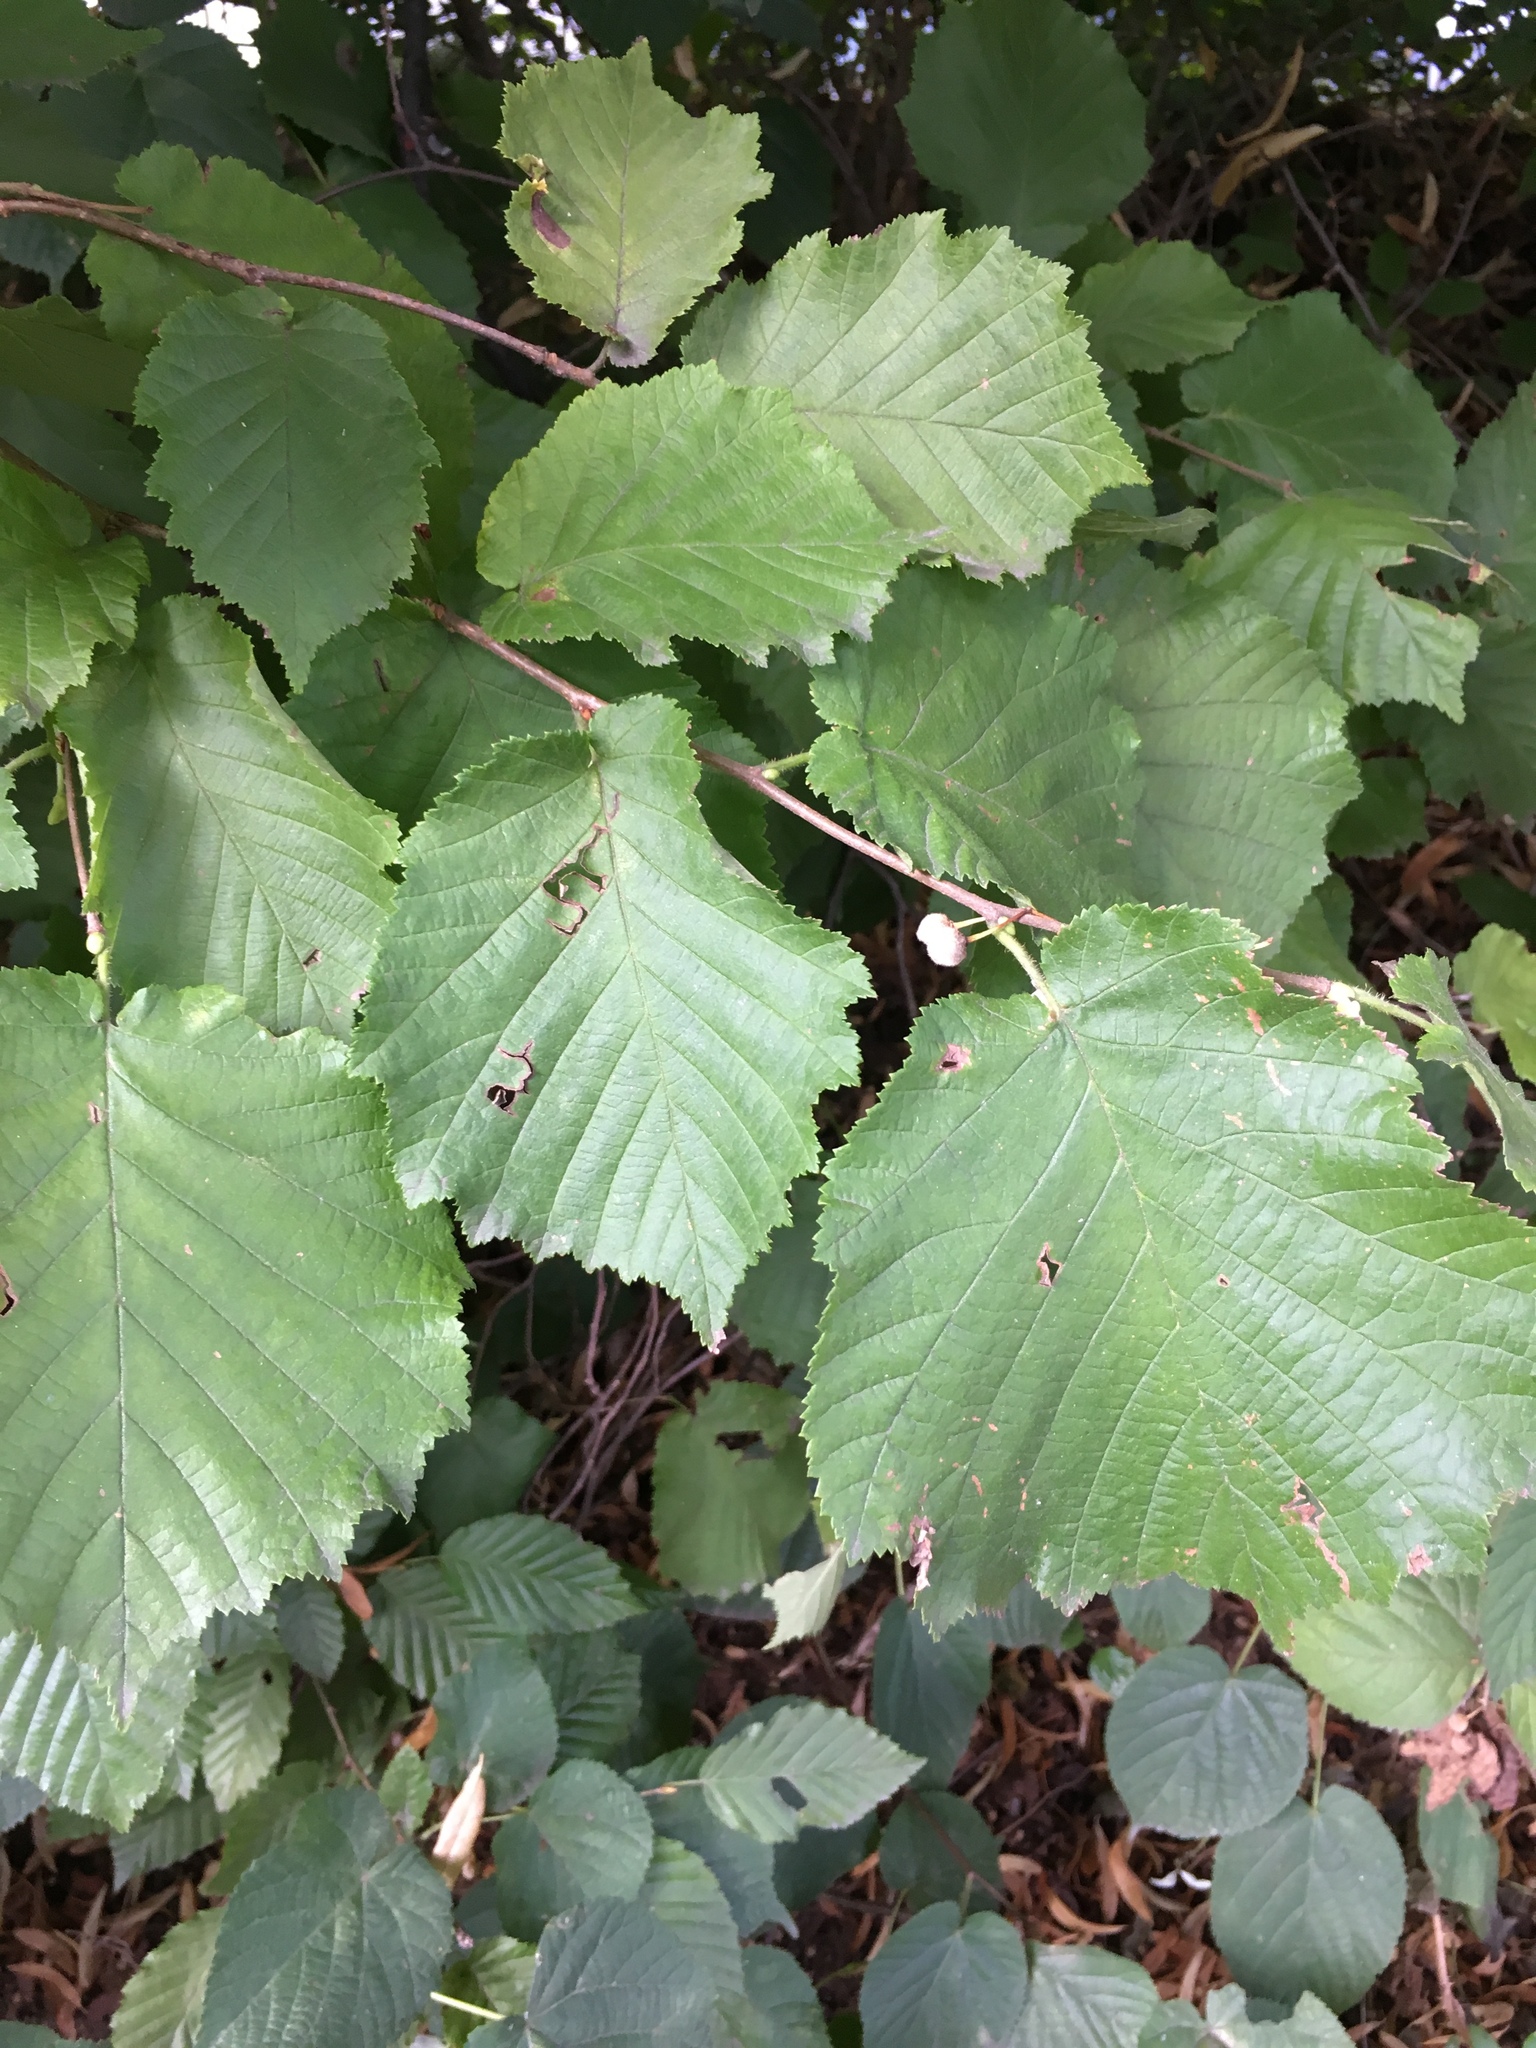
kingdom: Plantae
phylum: Tracheophyta
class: Magnoliopsida
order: Fagales
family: Betulaceae
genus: Corylus
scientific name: Corylus avellana
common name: European hazel
